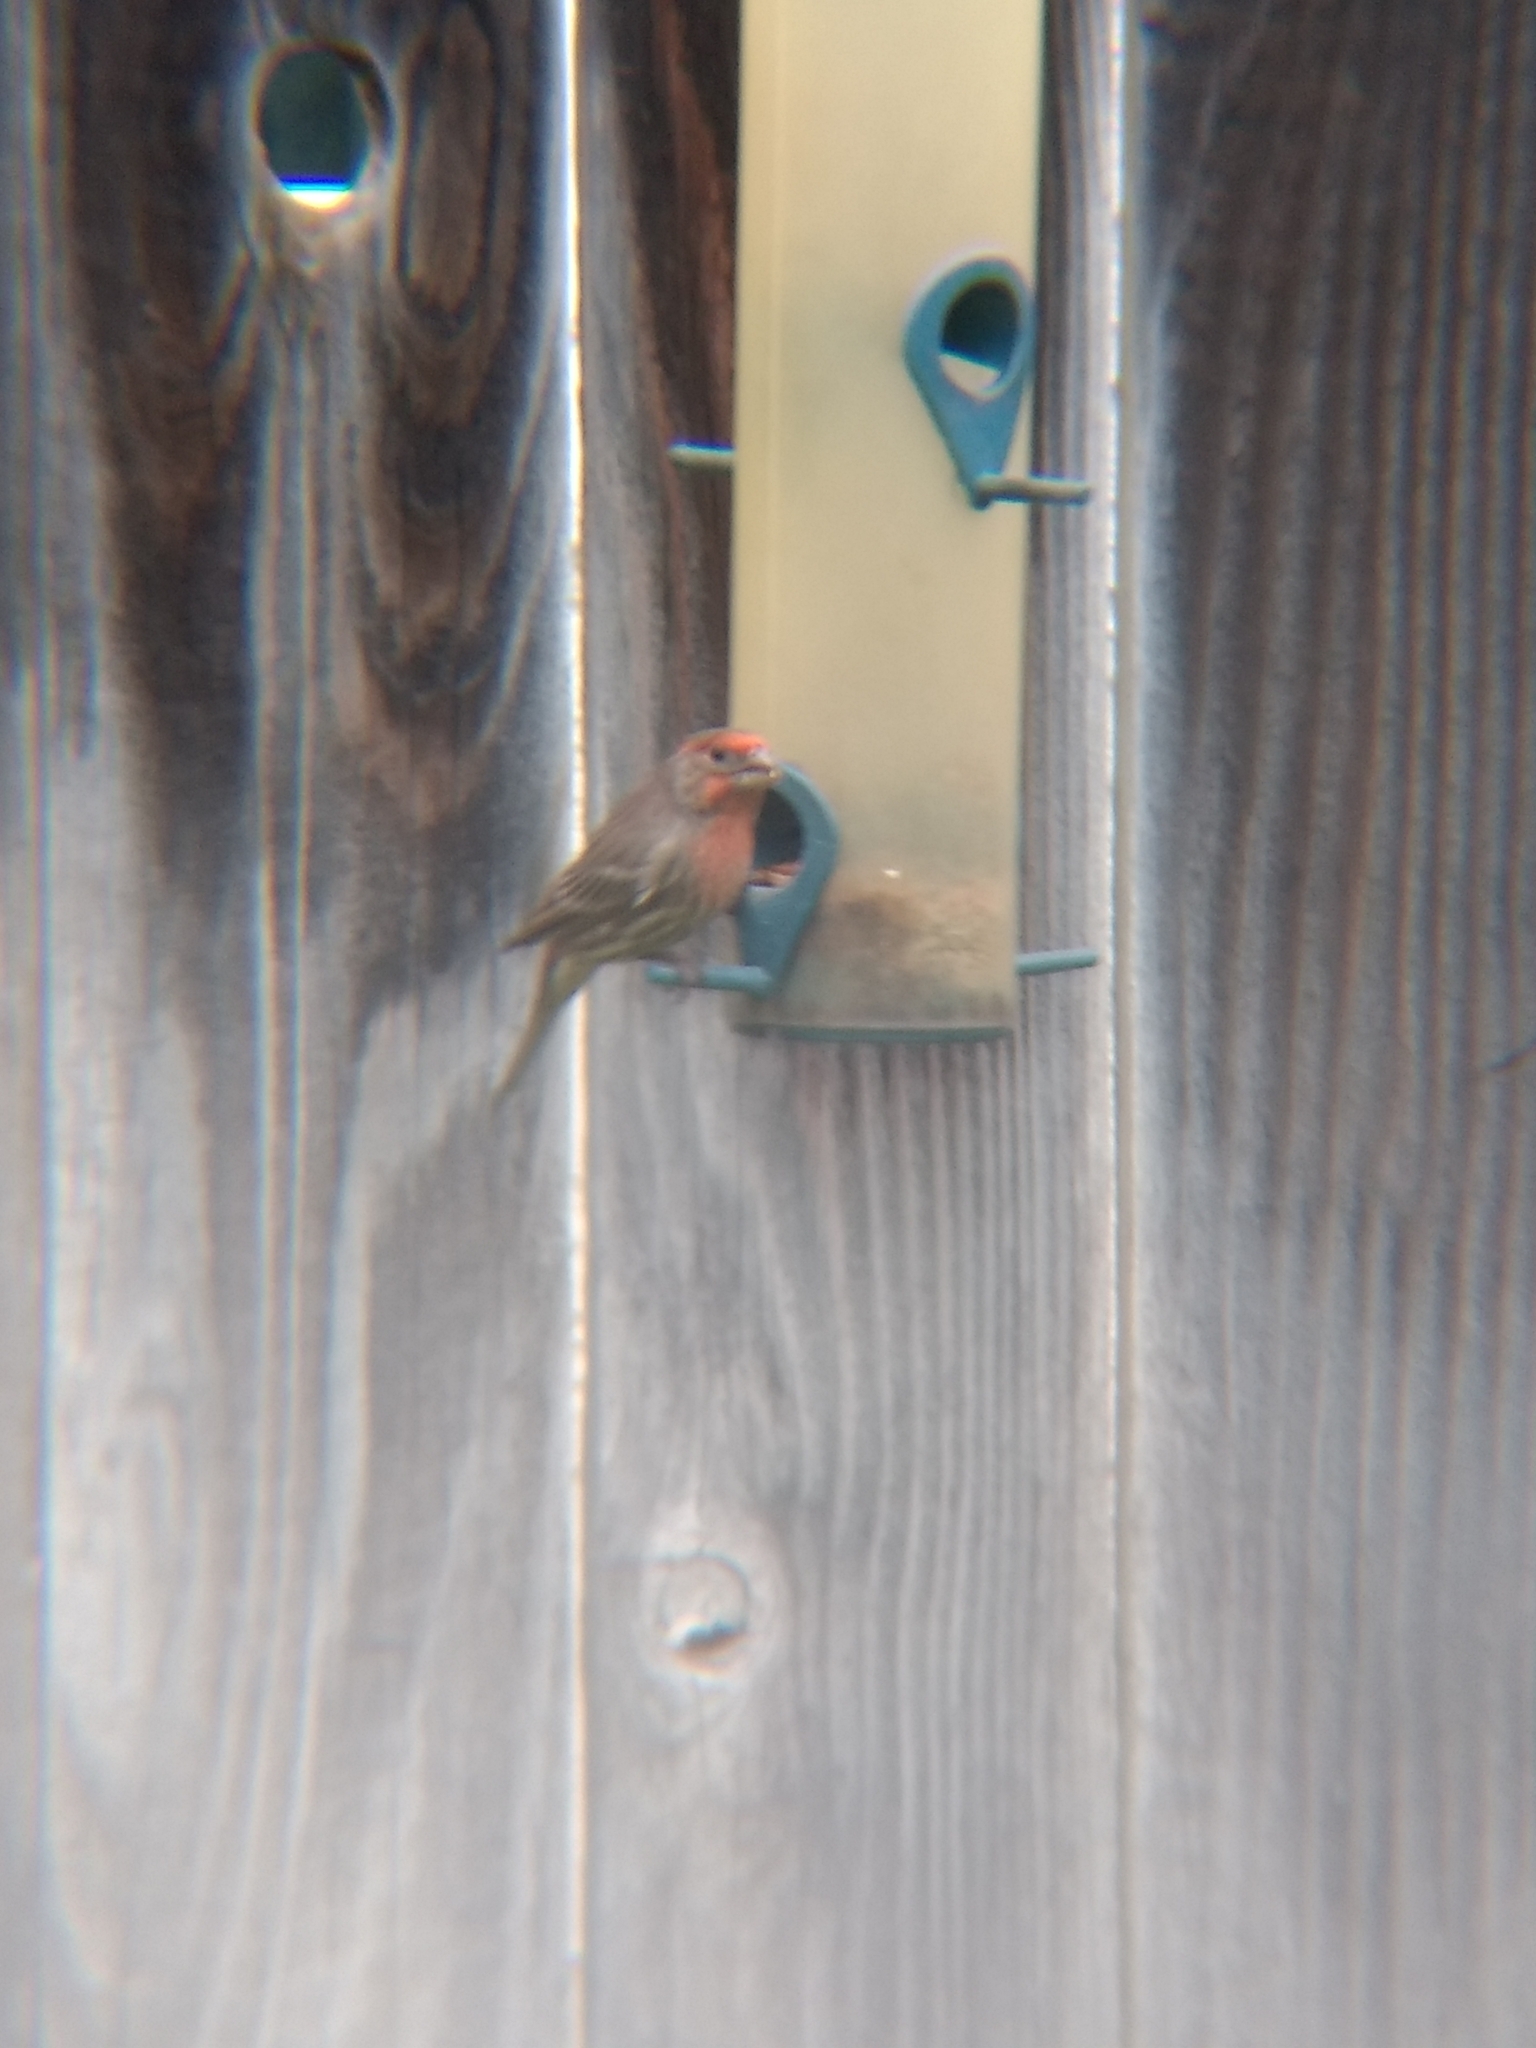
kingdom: Animalia
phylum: Chordata
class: Aves
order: Passeriformes
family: Fringillidae
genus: Haemorhous
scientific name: Haemorhous mexicanus
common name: House finch
